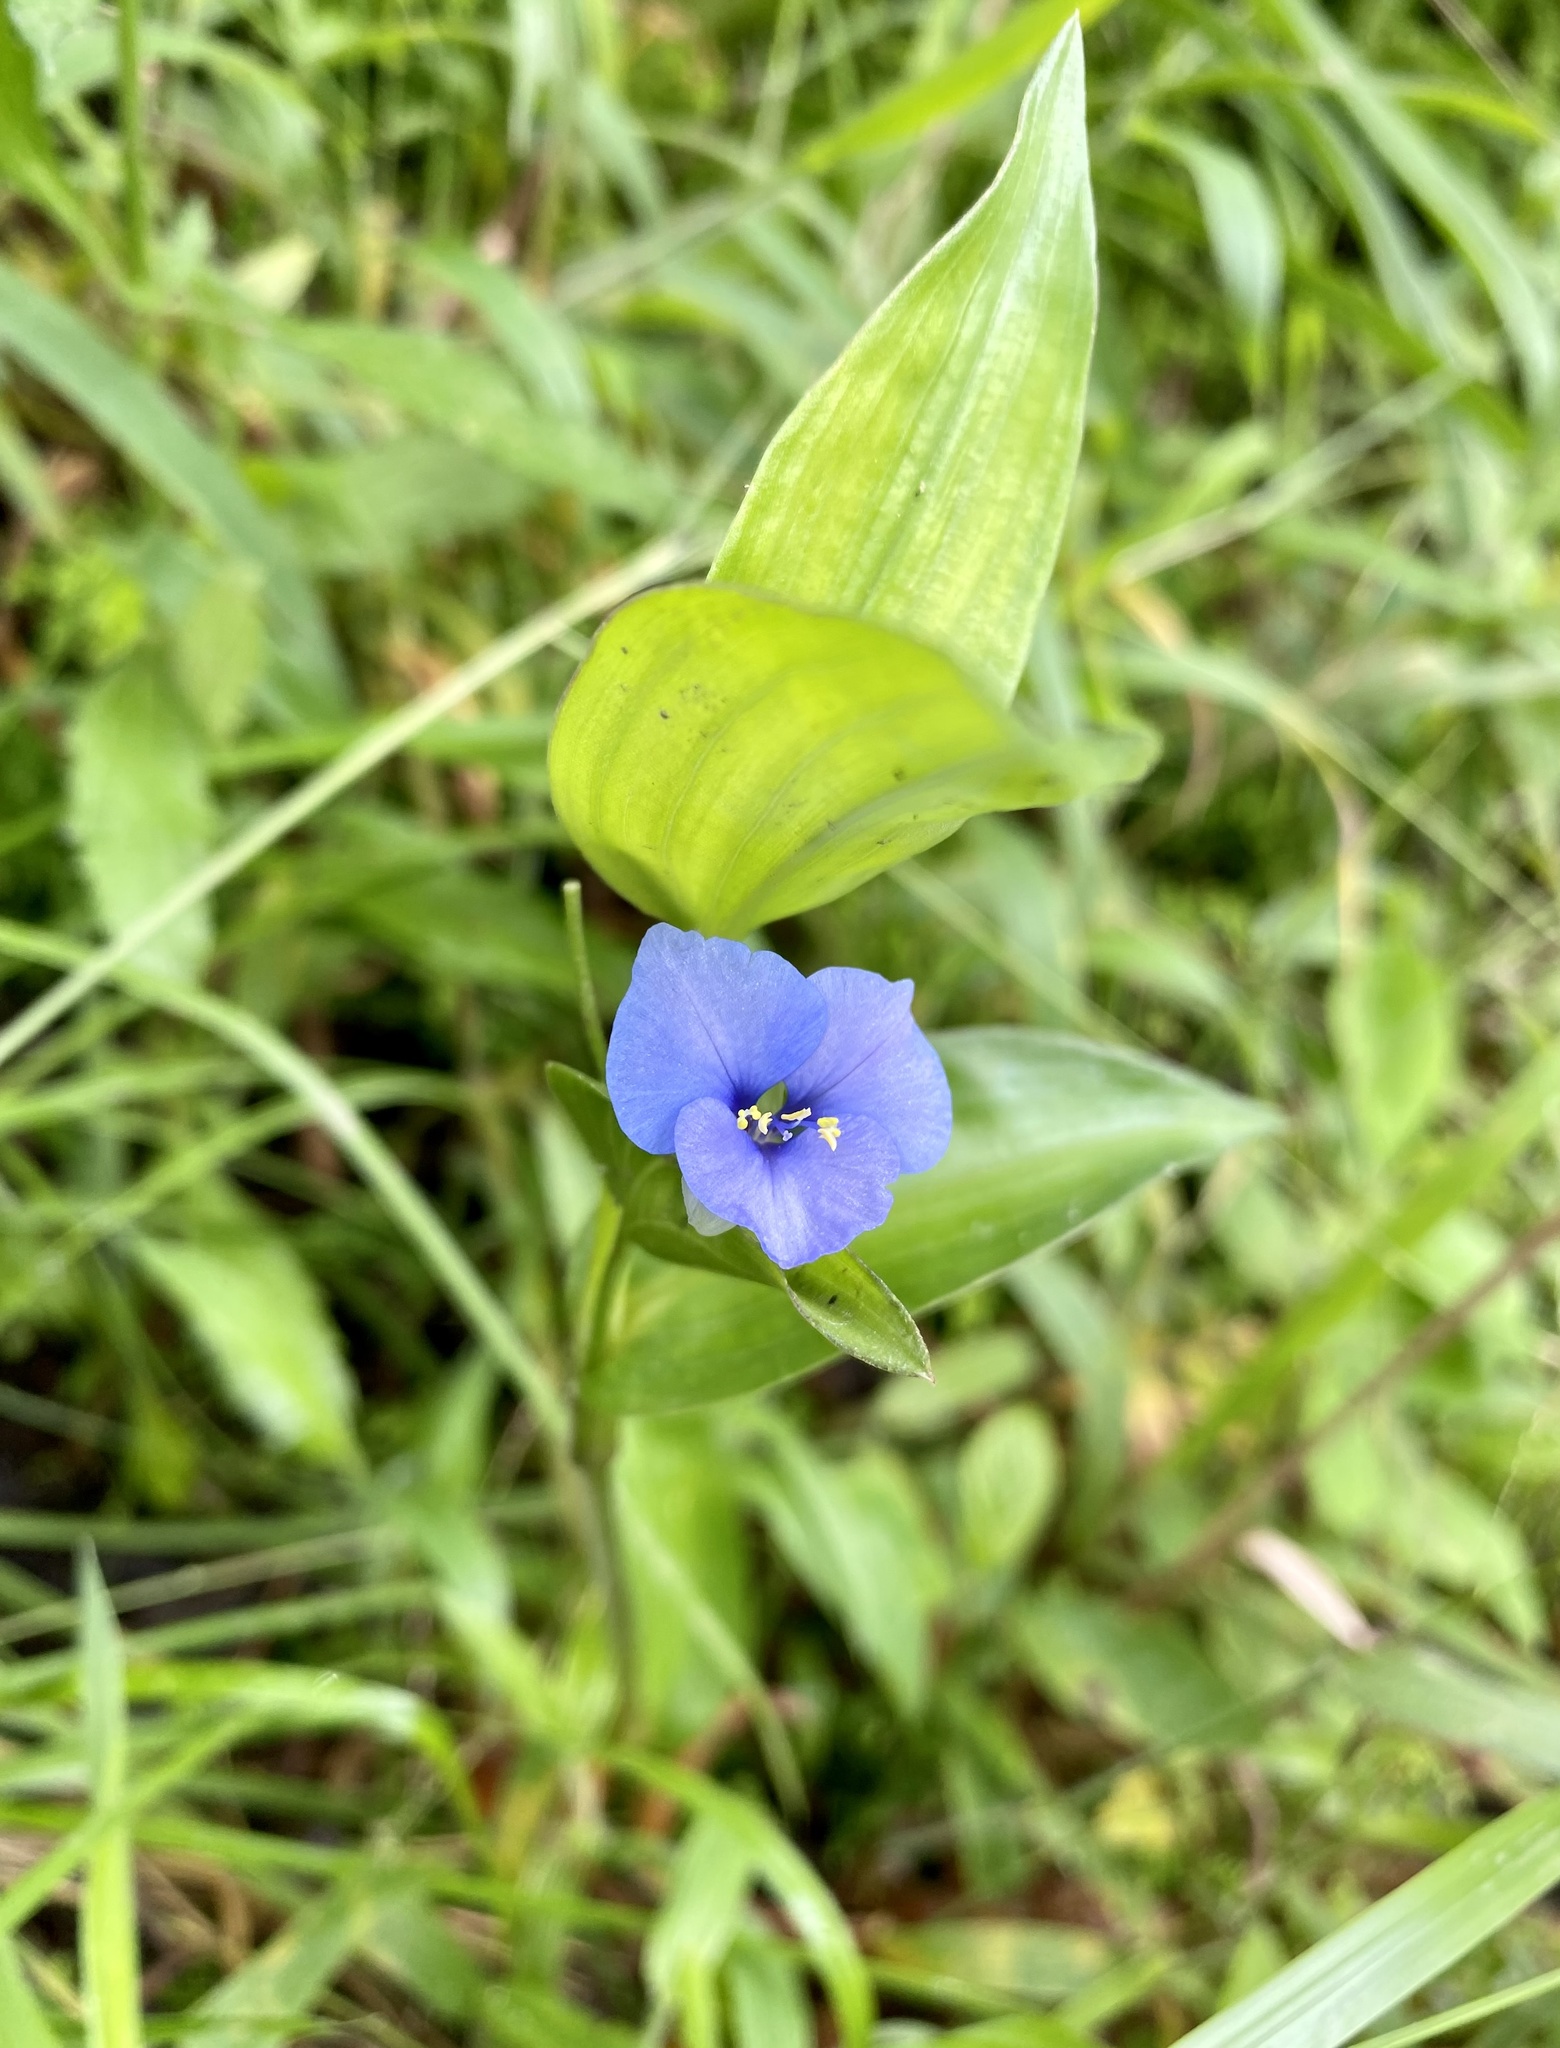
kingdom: Plantae
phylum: Tracheophyta
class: Liliopsida
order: Commelinales
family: Commelinaceae
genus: Commelina
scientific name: Commelina tuberosa
